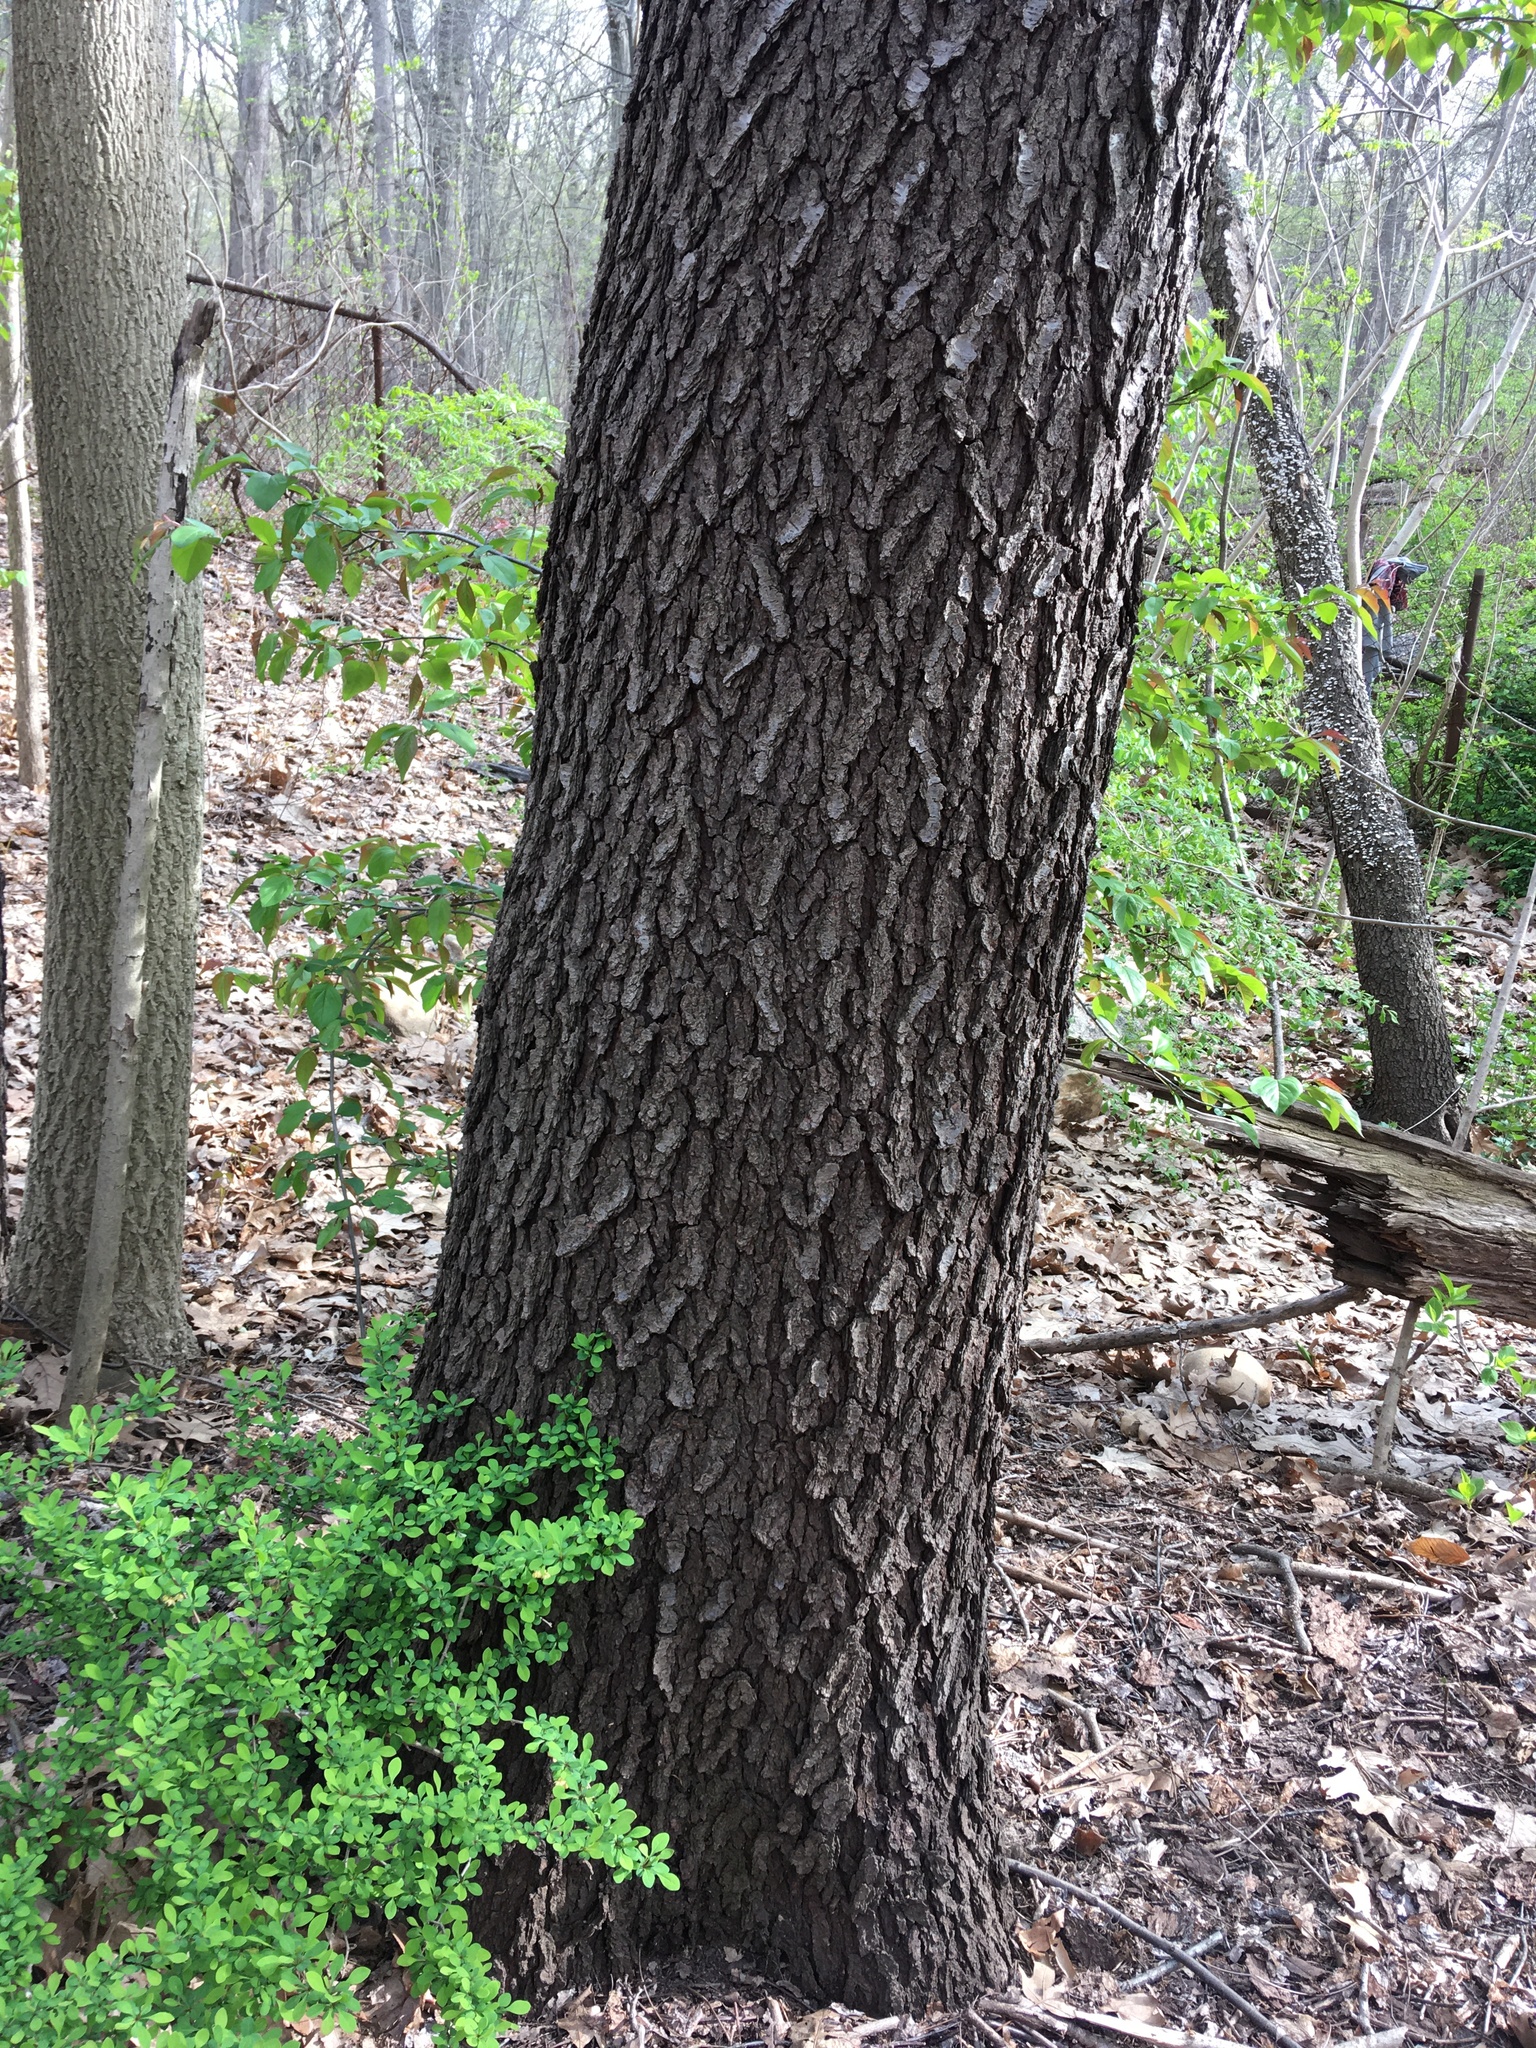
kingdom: Plantae
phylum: Tracheophyta
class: Magnoliopsida
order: Rosales
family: Rosaceae
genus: Prunus
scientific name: Prunus serotina
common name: Black cherry
